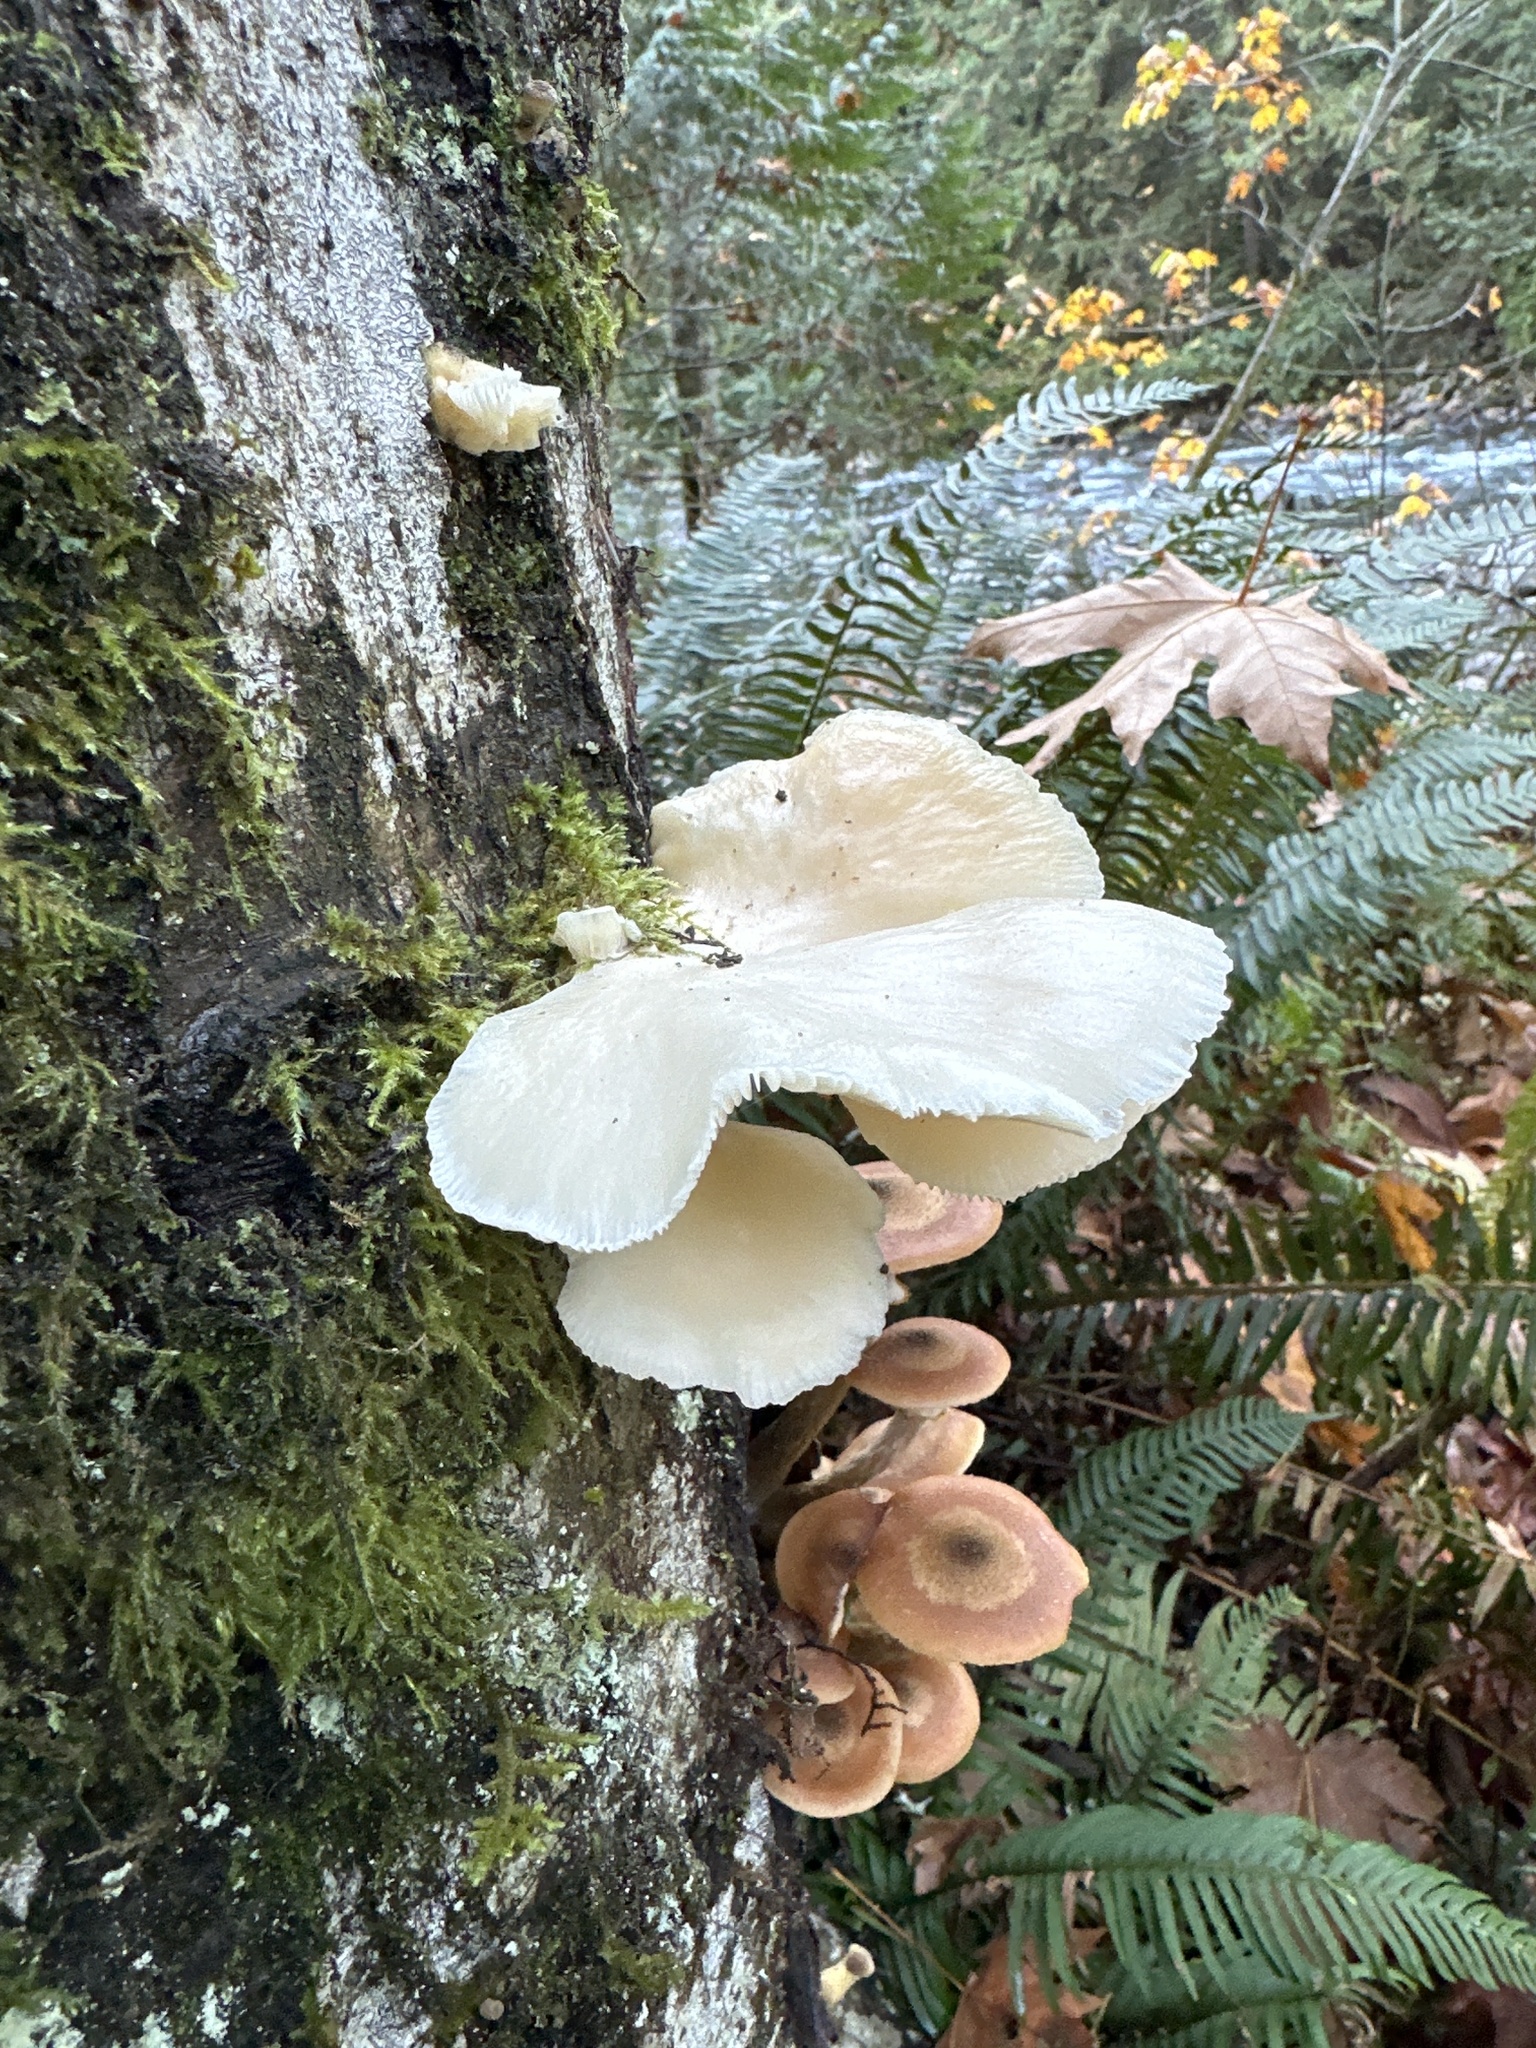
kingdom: Fungi
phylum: Basidiomycota
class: Agaricomycetes
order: Agaricales
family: Pleurotaceae
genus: Pleurotus
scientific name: Pleurotus pulmonarius
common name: Pale oyster
